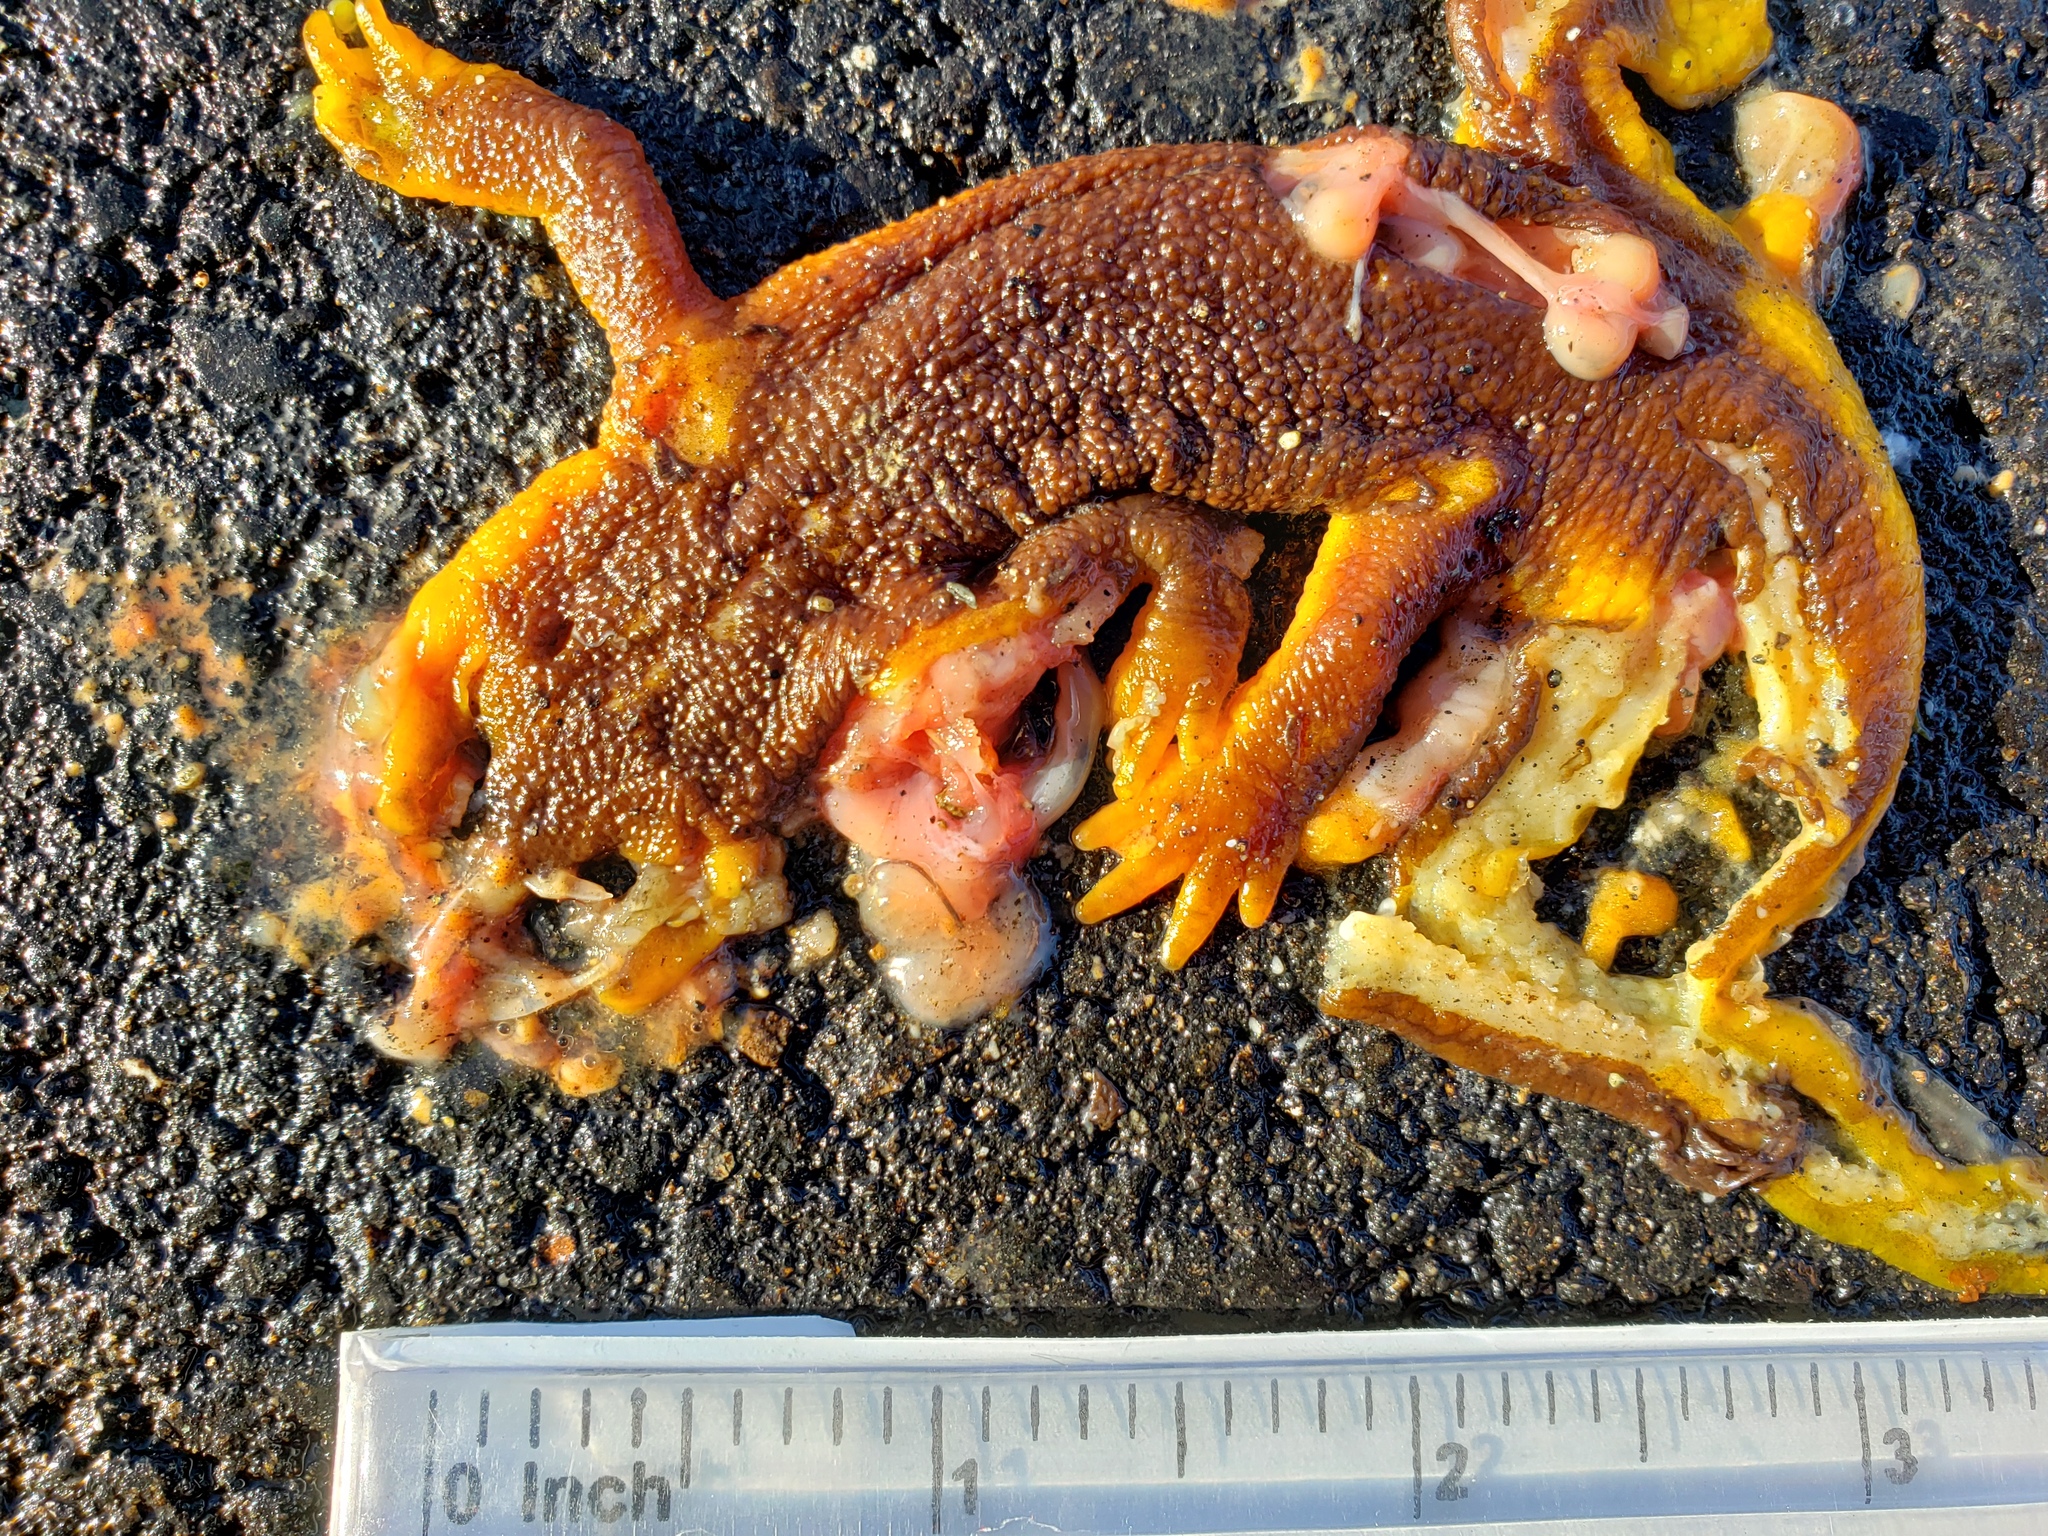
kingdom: Animalia
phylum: Chordata
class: Amphibia
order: Caudata
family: Salamandridae
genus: Taricha
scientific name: Taricha
